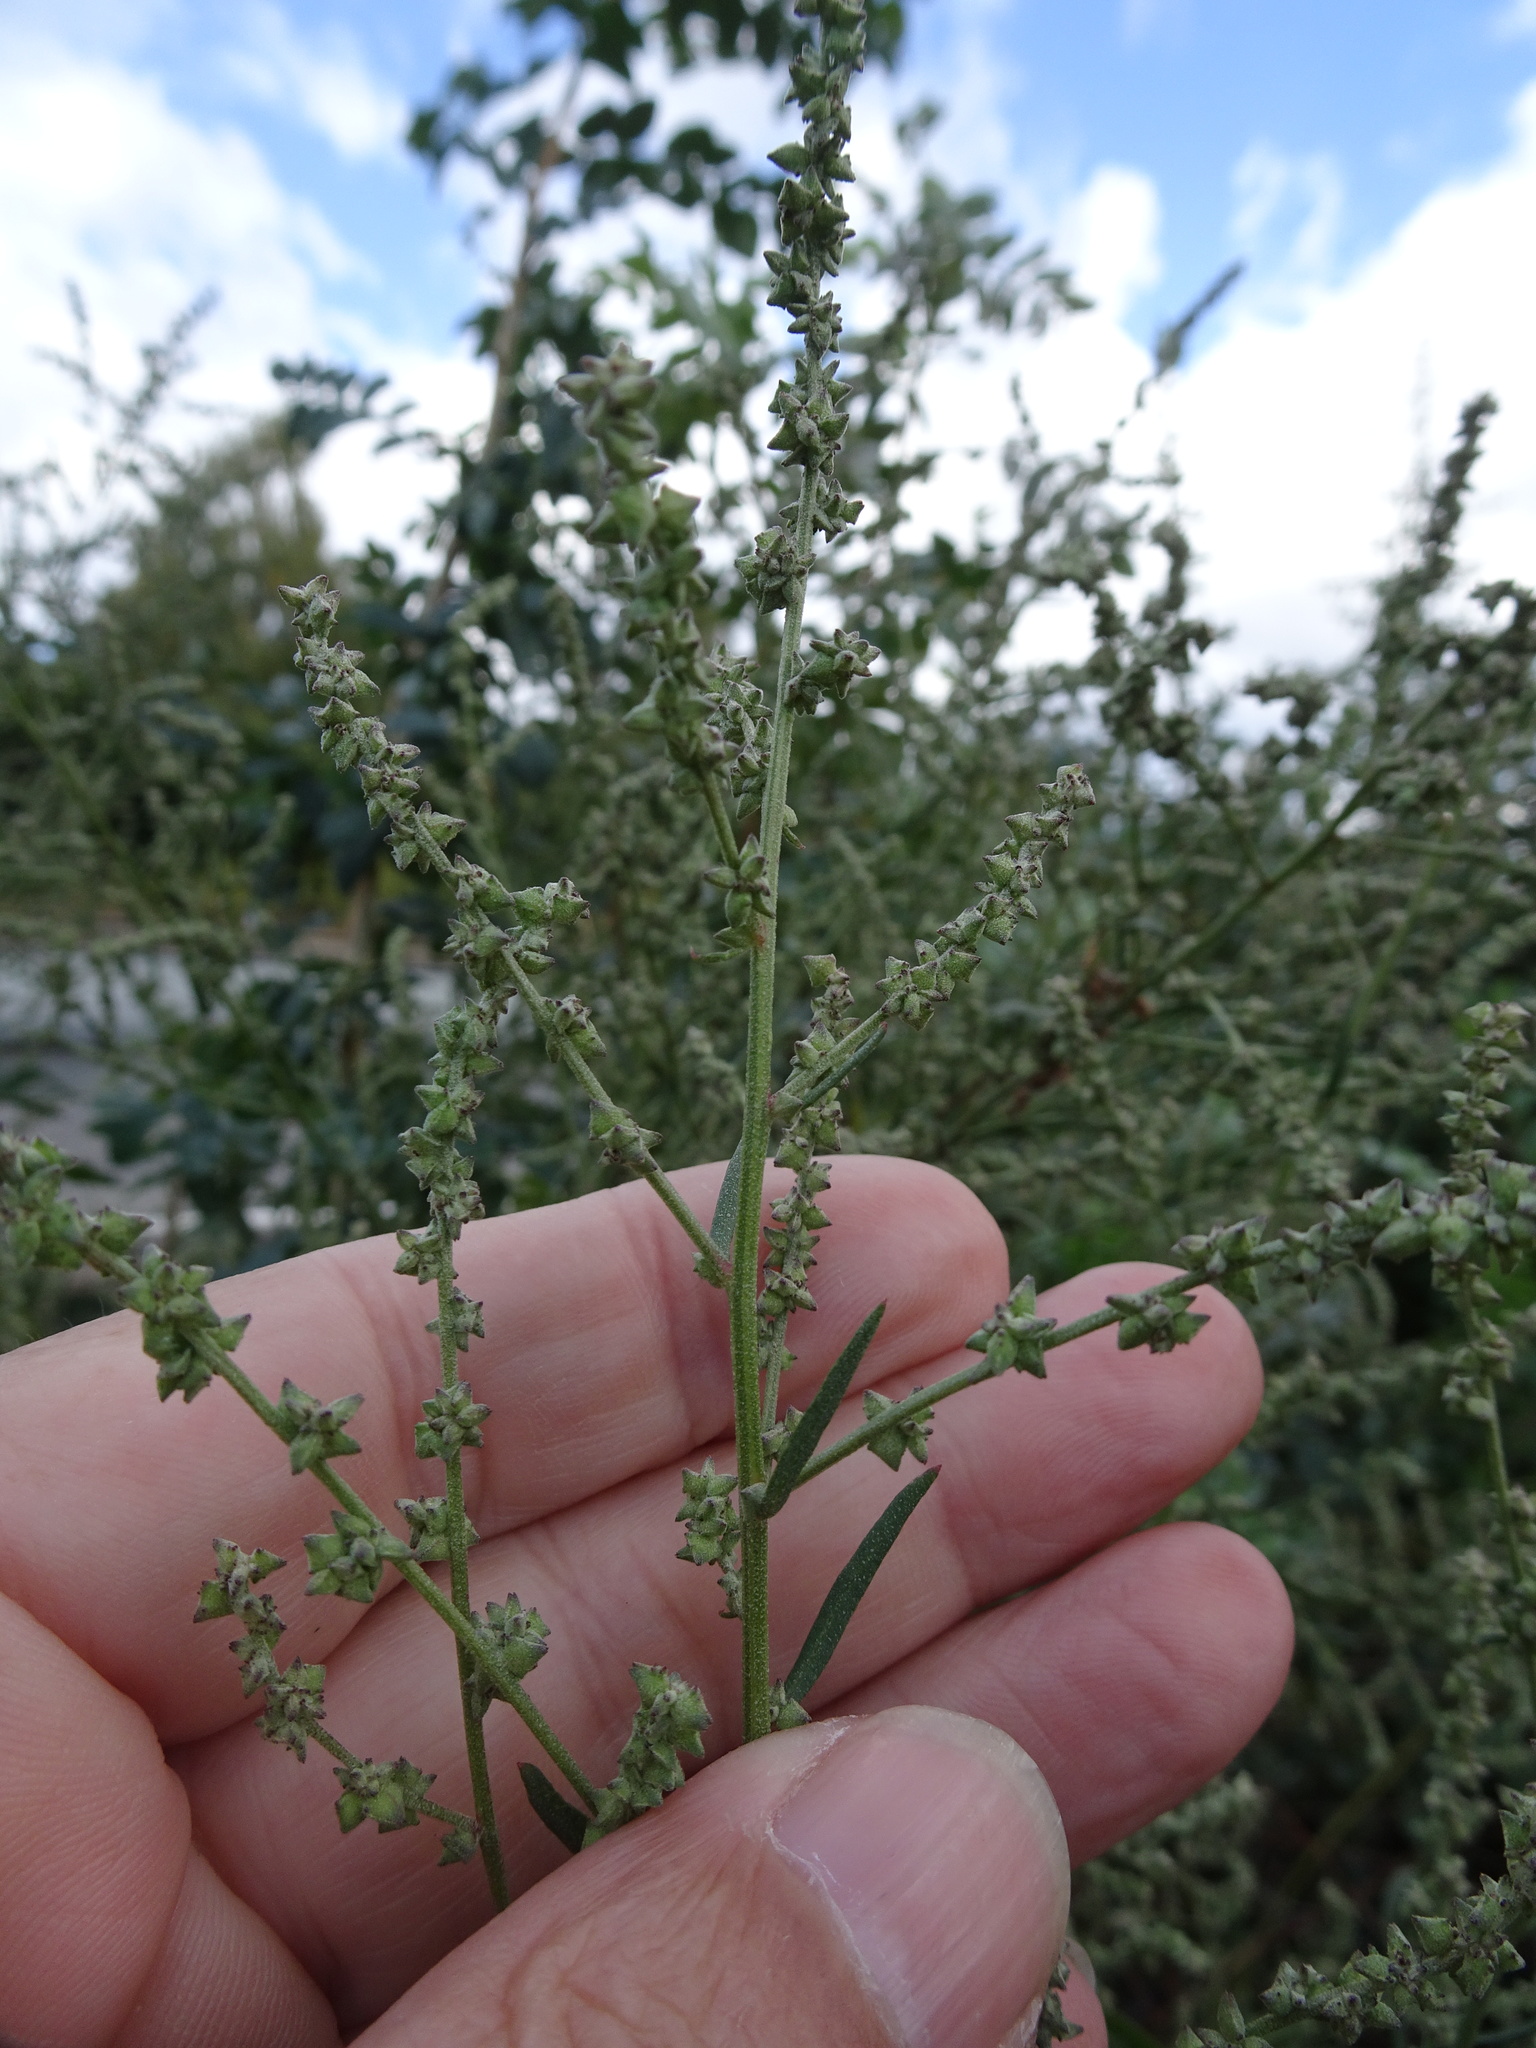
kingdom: Plantae
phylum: Tracheophyta
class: Magnoliopsida
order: Caryophyllales
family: Amaranthaceae
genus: Atriplex
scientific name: Atriplex patula
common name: Common orache
